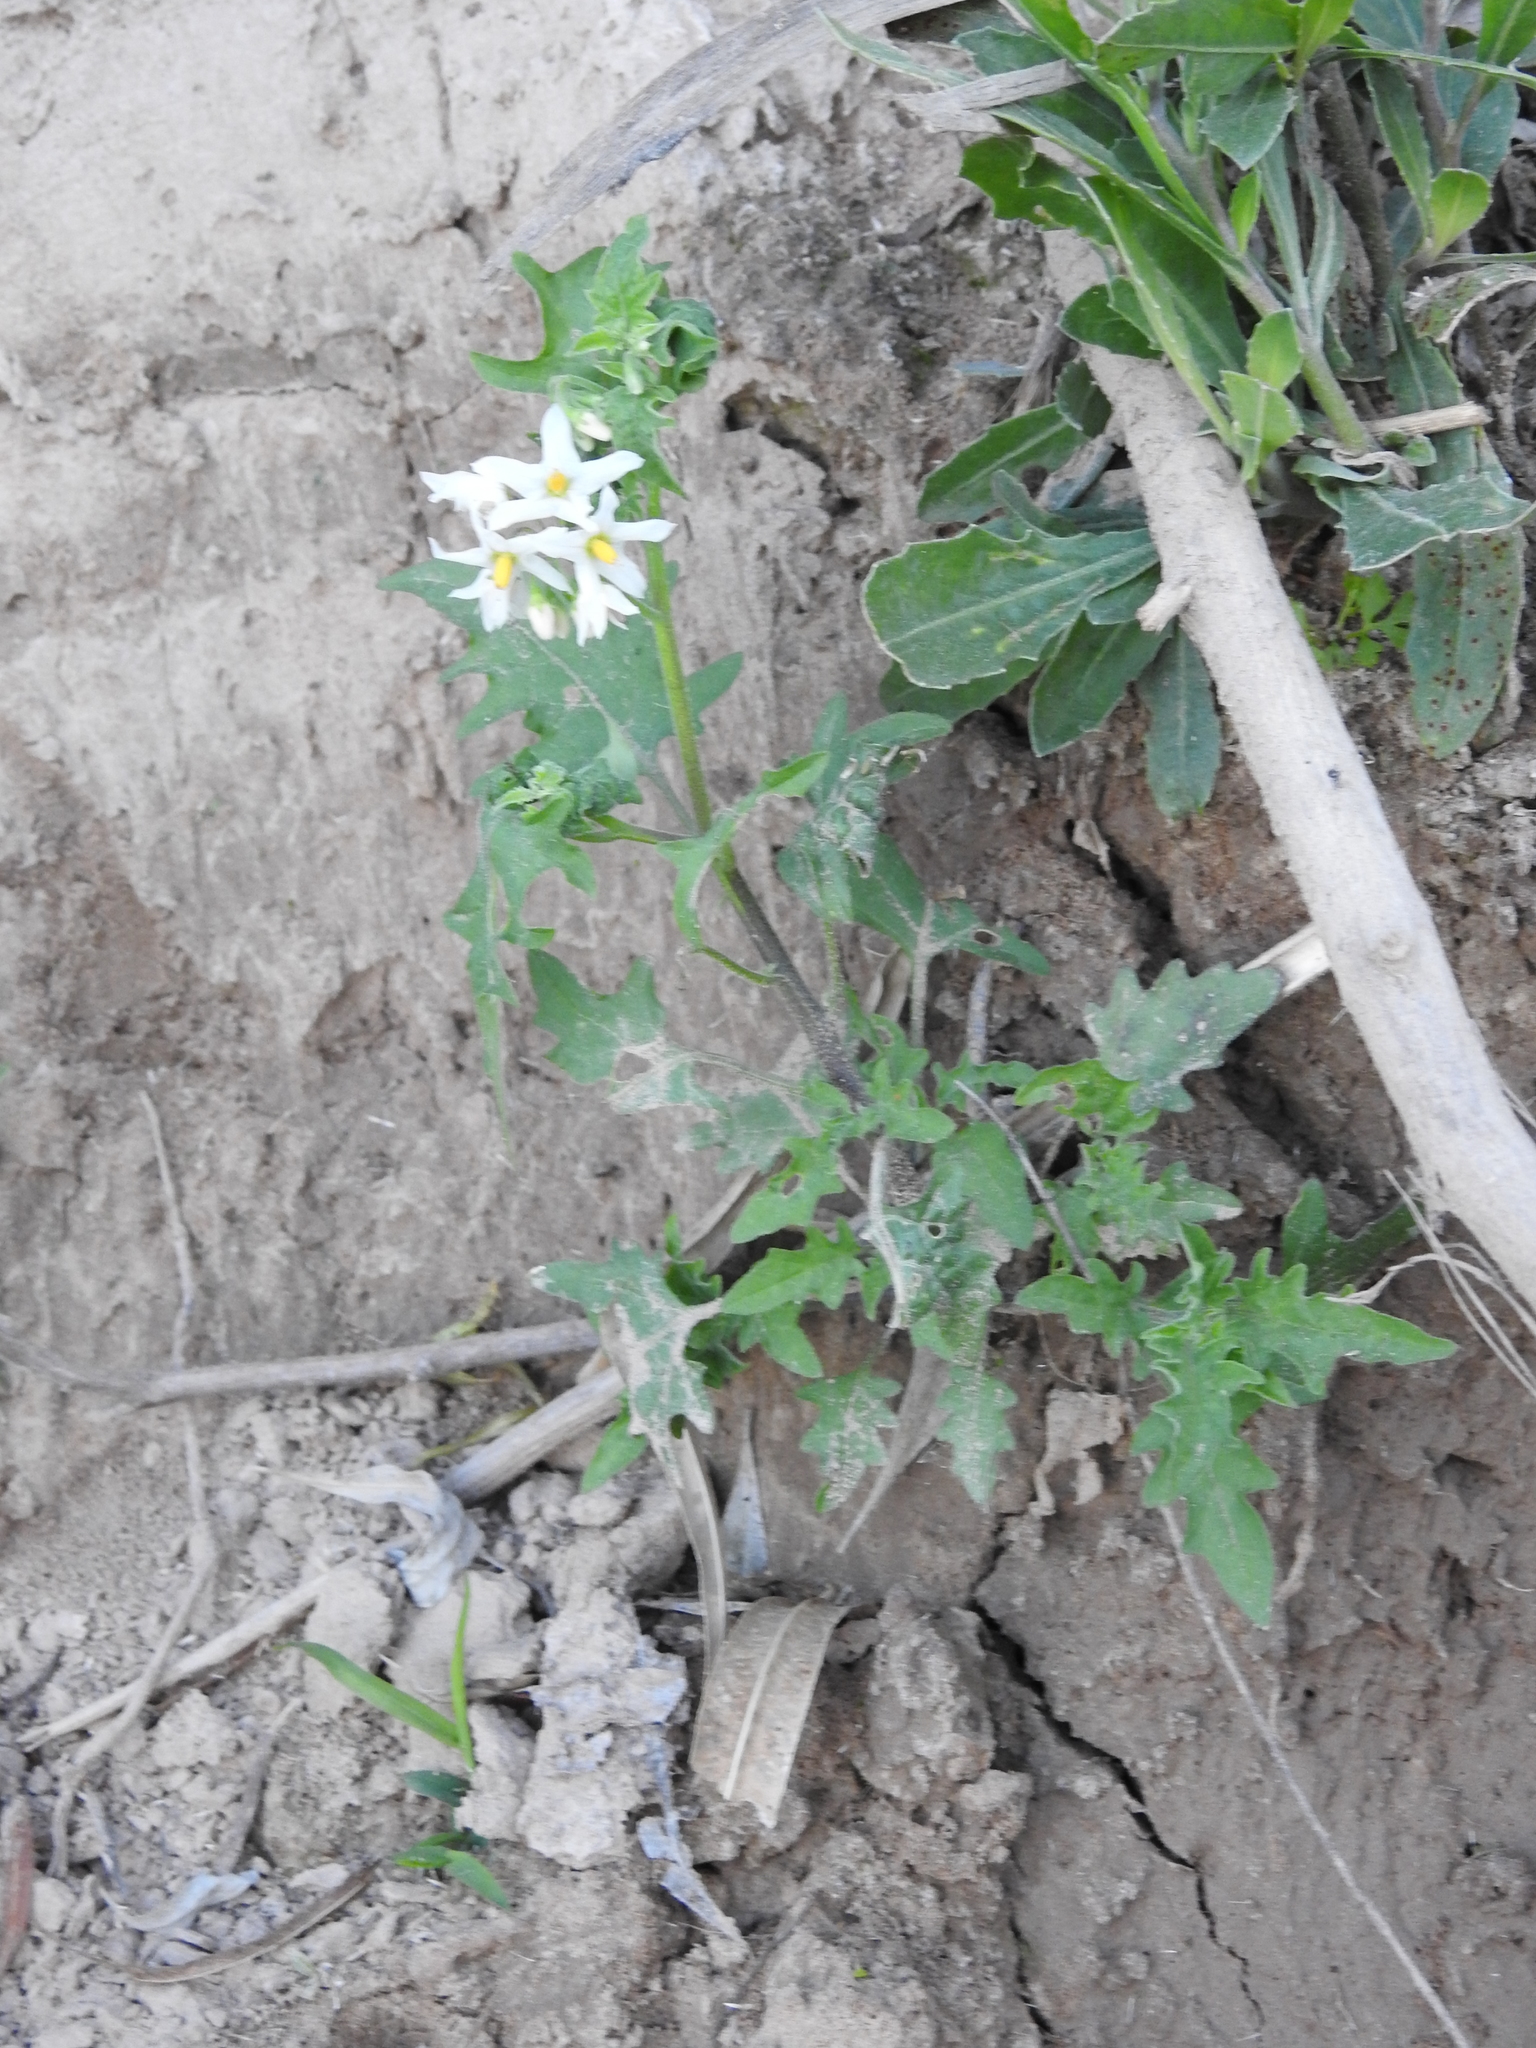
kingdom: Plantae
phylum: Tracheophyta
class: Magnoliopsida
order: Solanales
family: Solanaceae
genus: Solanum
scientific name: Solanum pilcomayense
